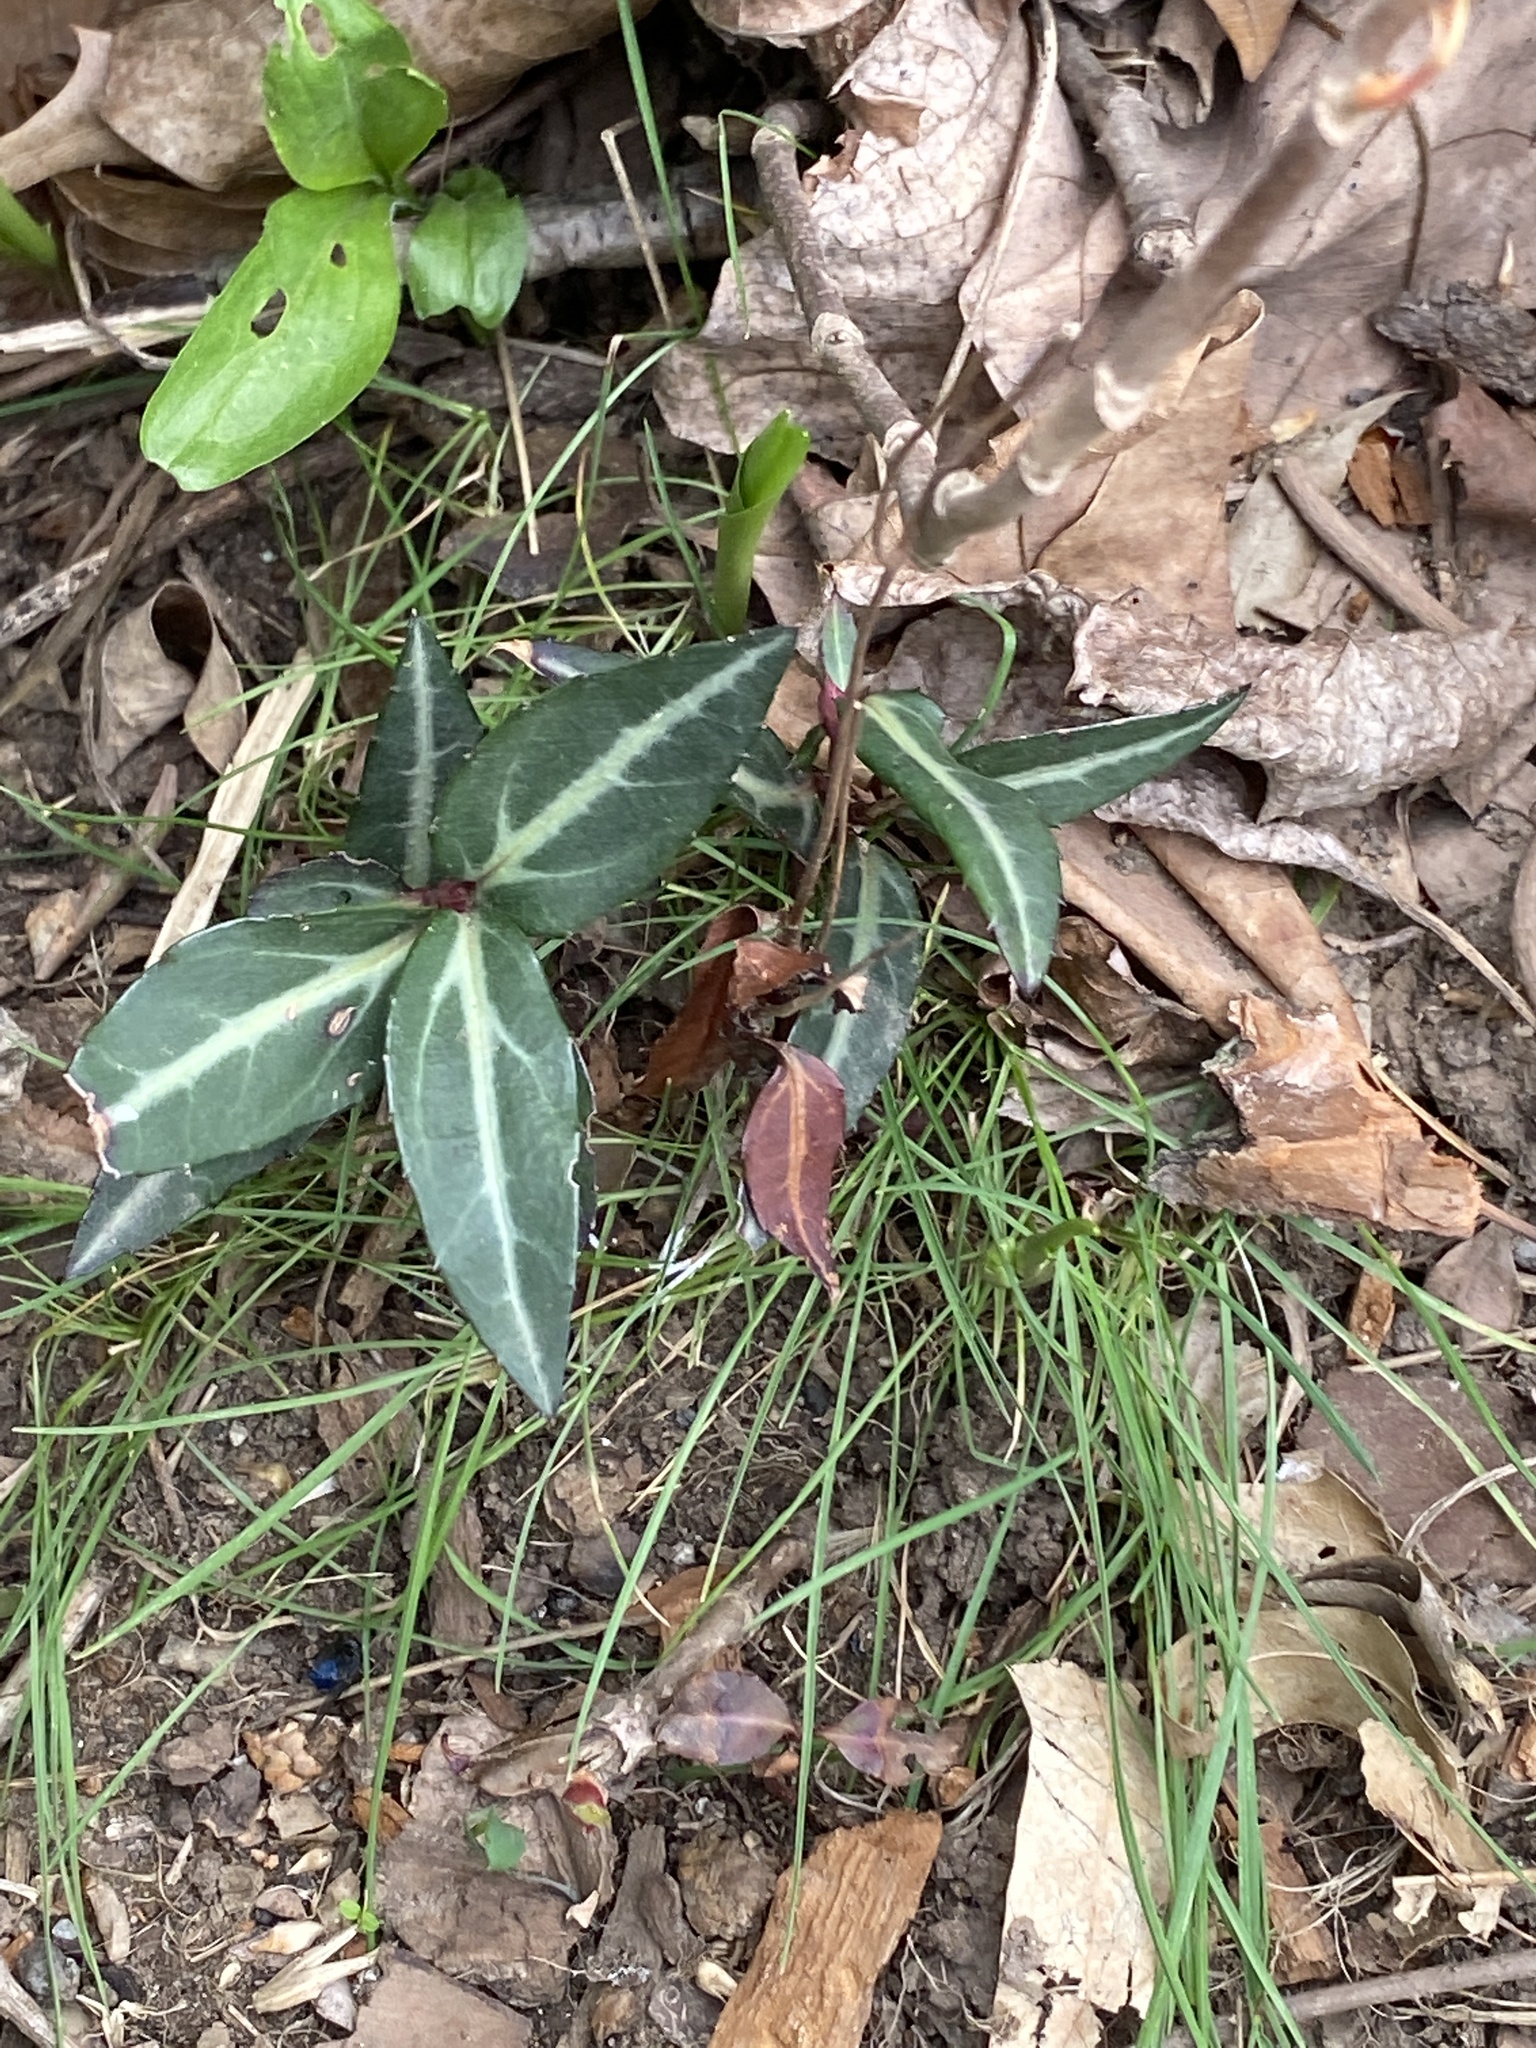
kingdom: Plantae
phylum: Tracheophyta
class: Magnoliopsida
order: Ericales
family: Ericaceae
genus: Chimaphila
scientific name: Chimaphila maculata
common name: Spotted pipsissewa
